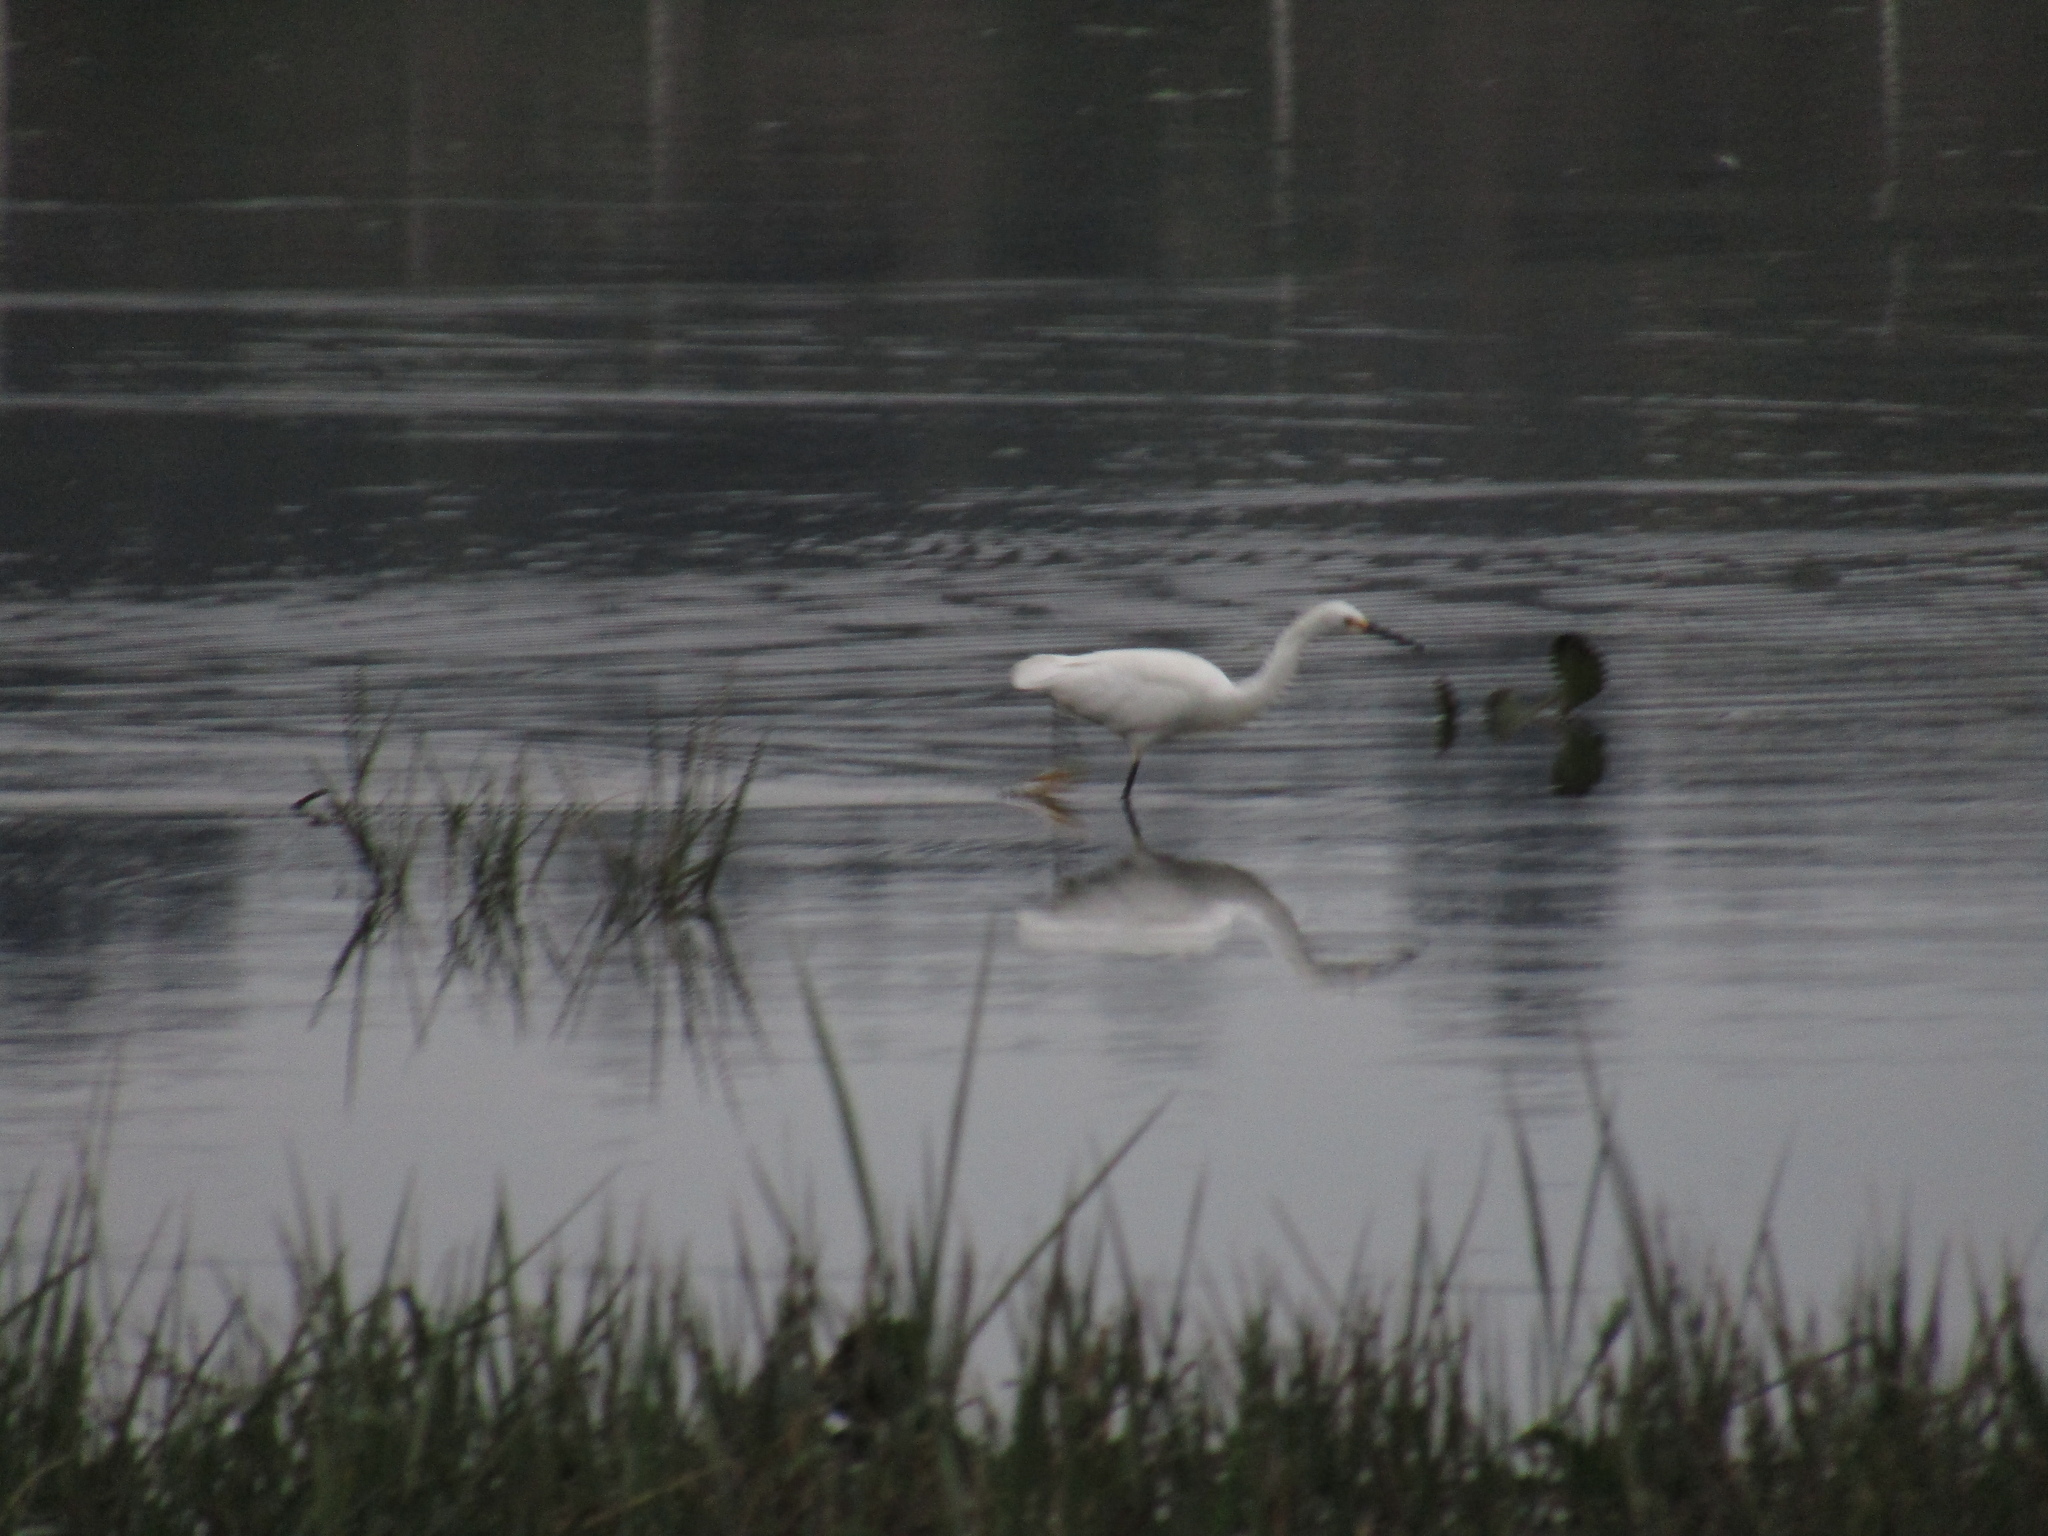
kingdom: Animalia
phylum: Chordata
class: Aves
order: Pelecaniformes
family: Ardeidae
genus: Egretta
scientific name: Egretta thula
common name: Snowy egret
